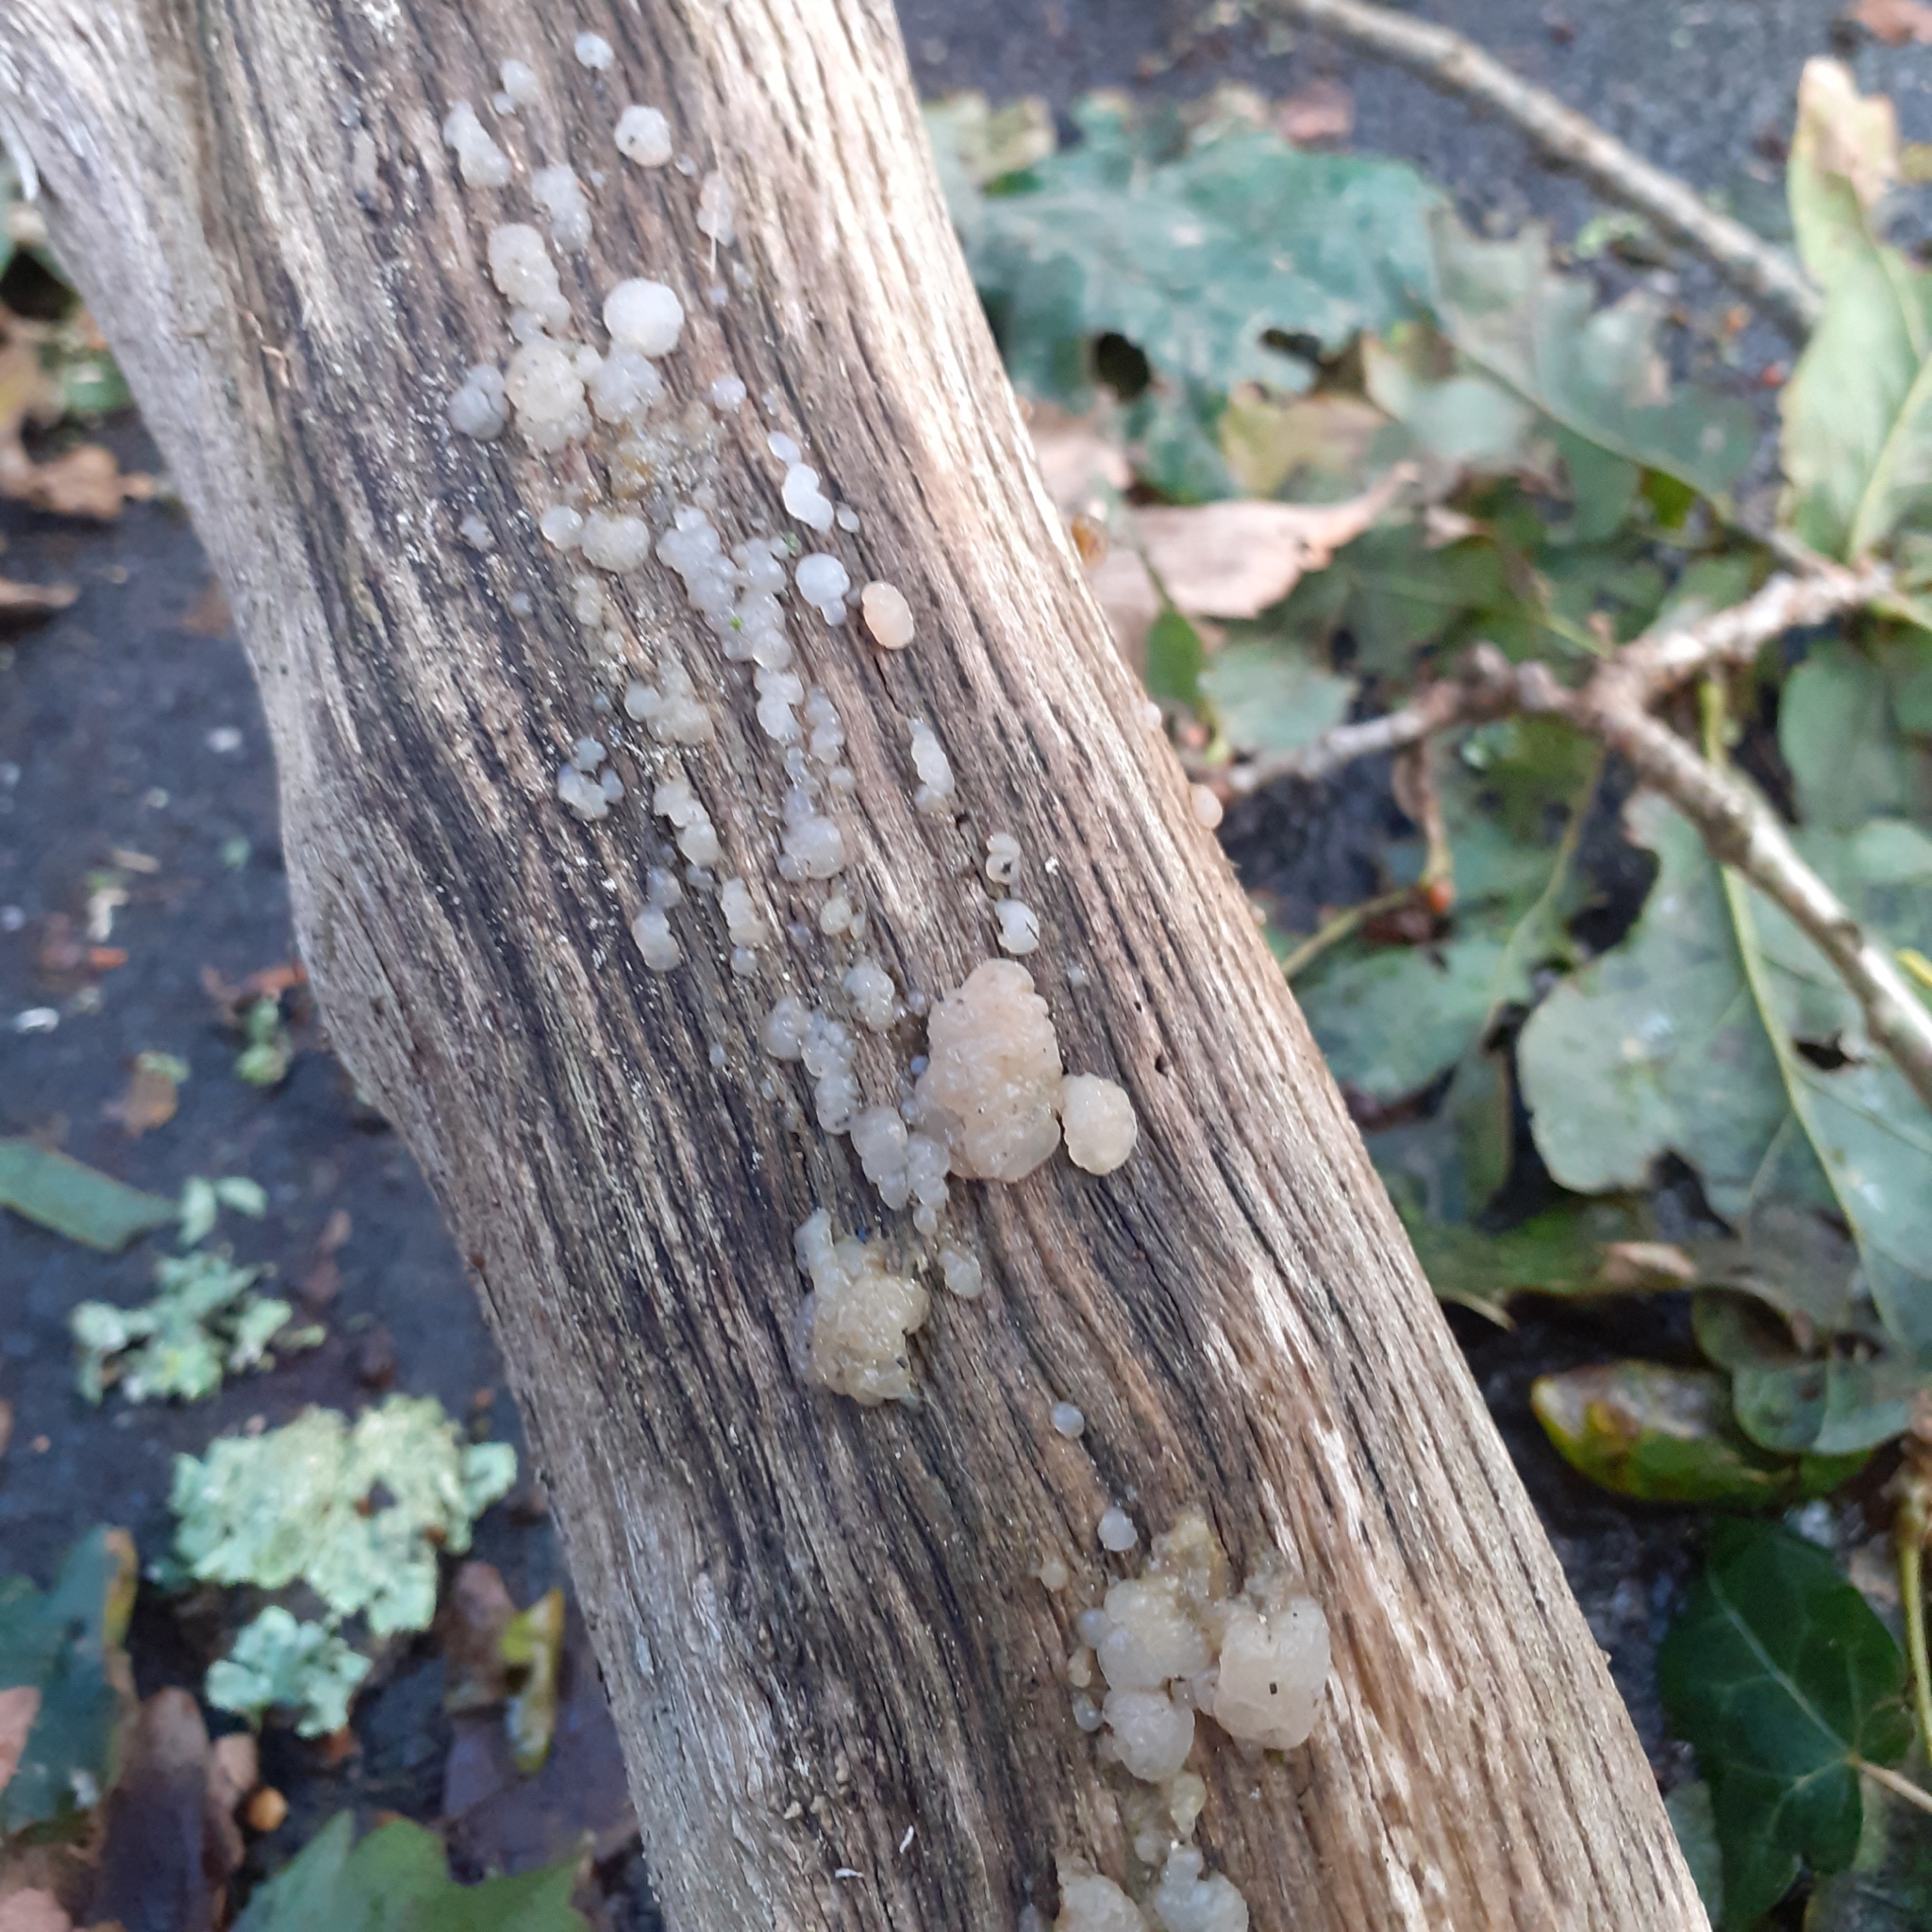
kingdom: Fungi
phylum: Basidiomycota
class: Agaricomycetes
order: Auriculariales
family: Hyaloriaceae
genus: Myxarium
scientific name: Myxarium nucleatum
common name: Crystal brain fungus
